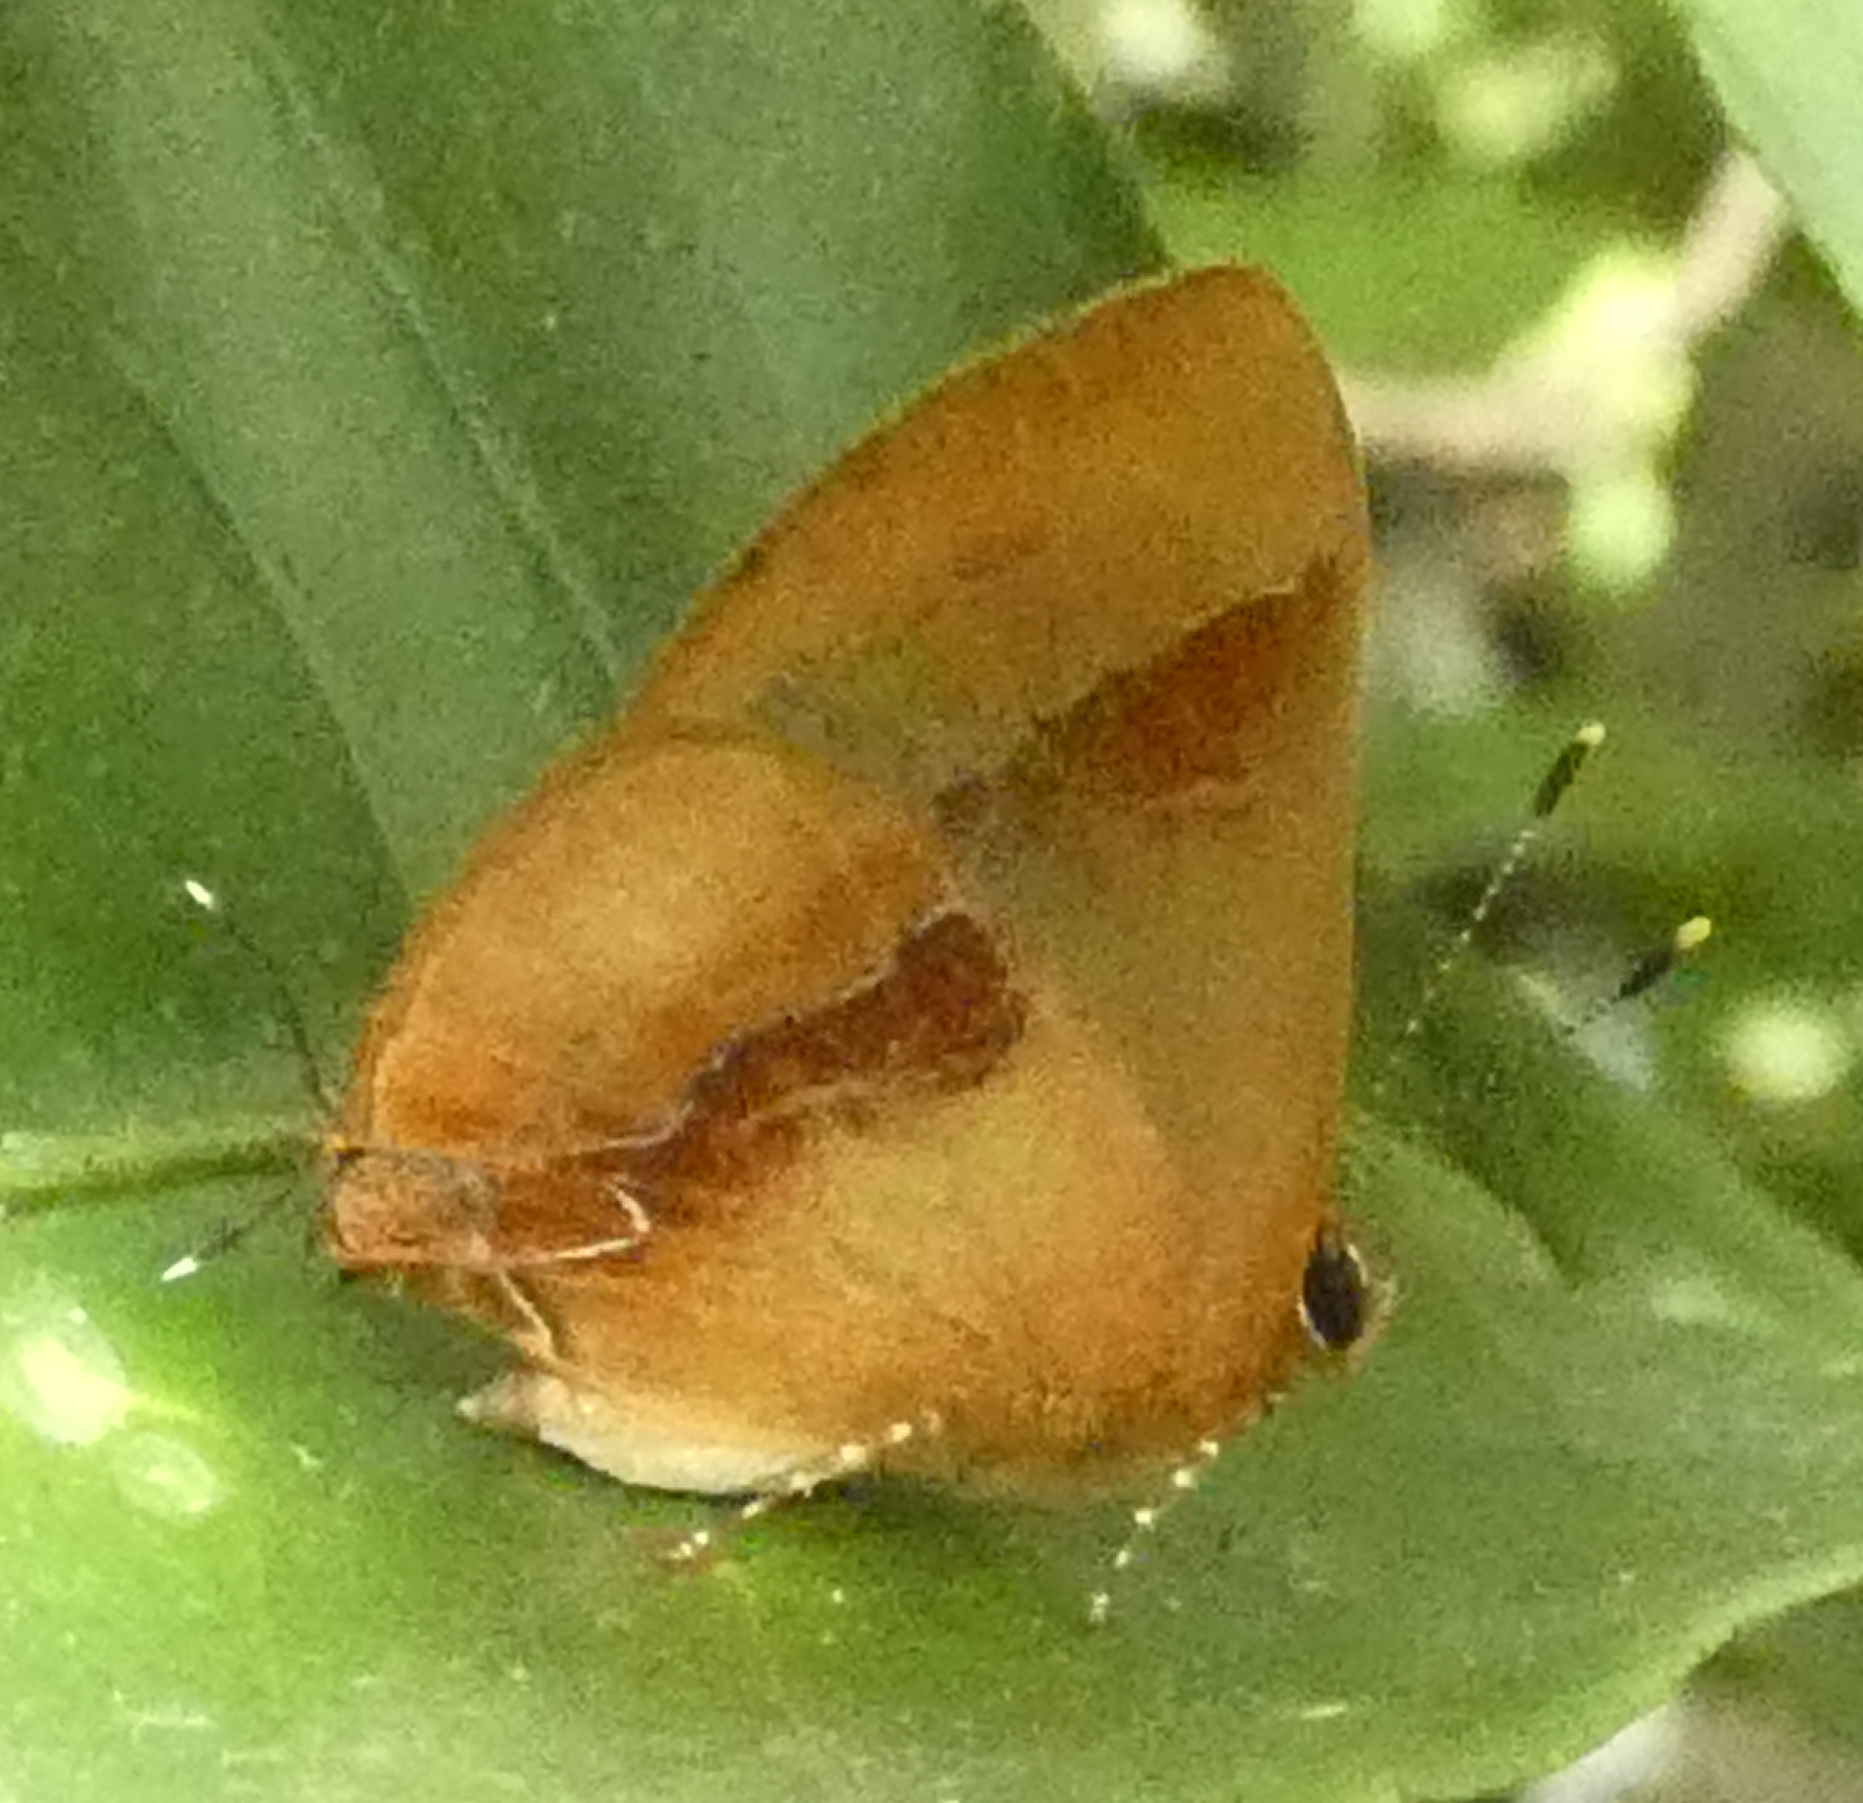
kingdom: Animalia
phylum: Arthropoda
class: Insecta
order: Lepidoptera
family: Lycaenidae
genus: Thecla
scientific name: Thecla demonassa
